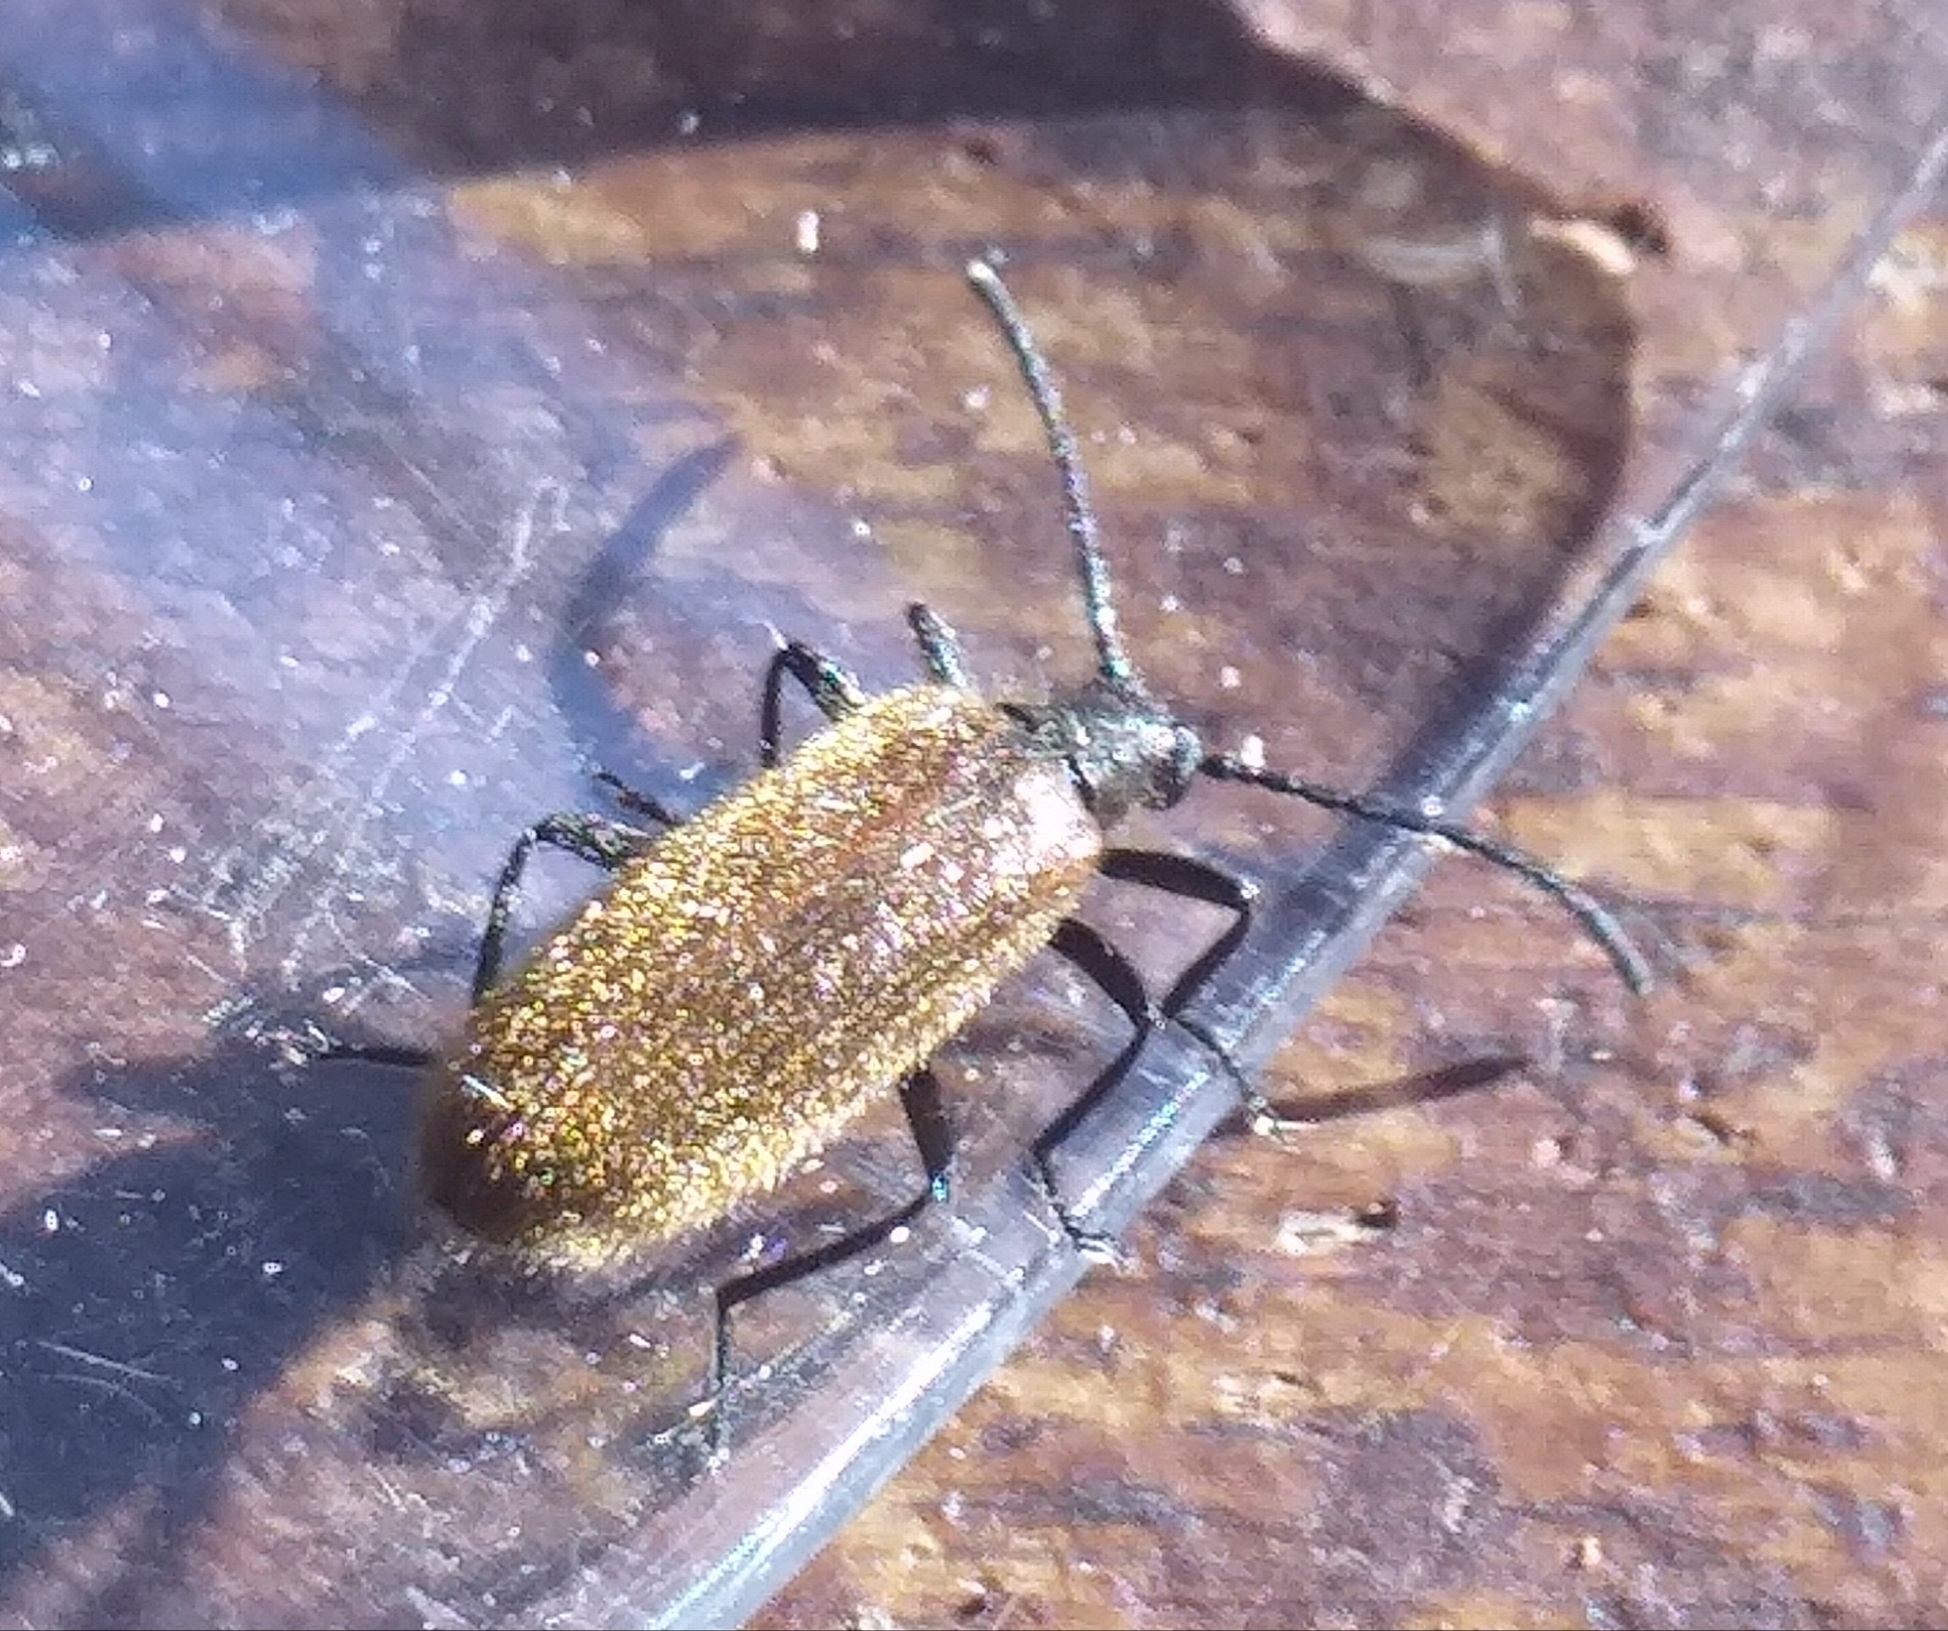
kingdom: Animalia
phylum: Arthropoda
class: Insecta
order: Coleoptera
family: Tenebrionidae
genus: Lagria
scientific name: Lagria hirta
